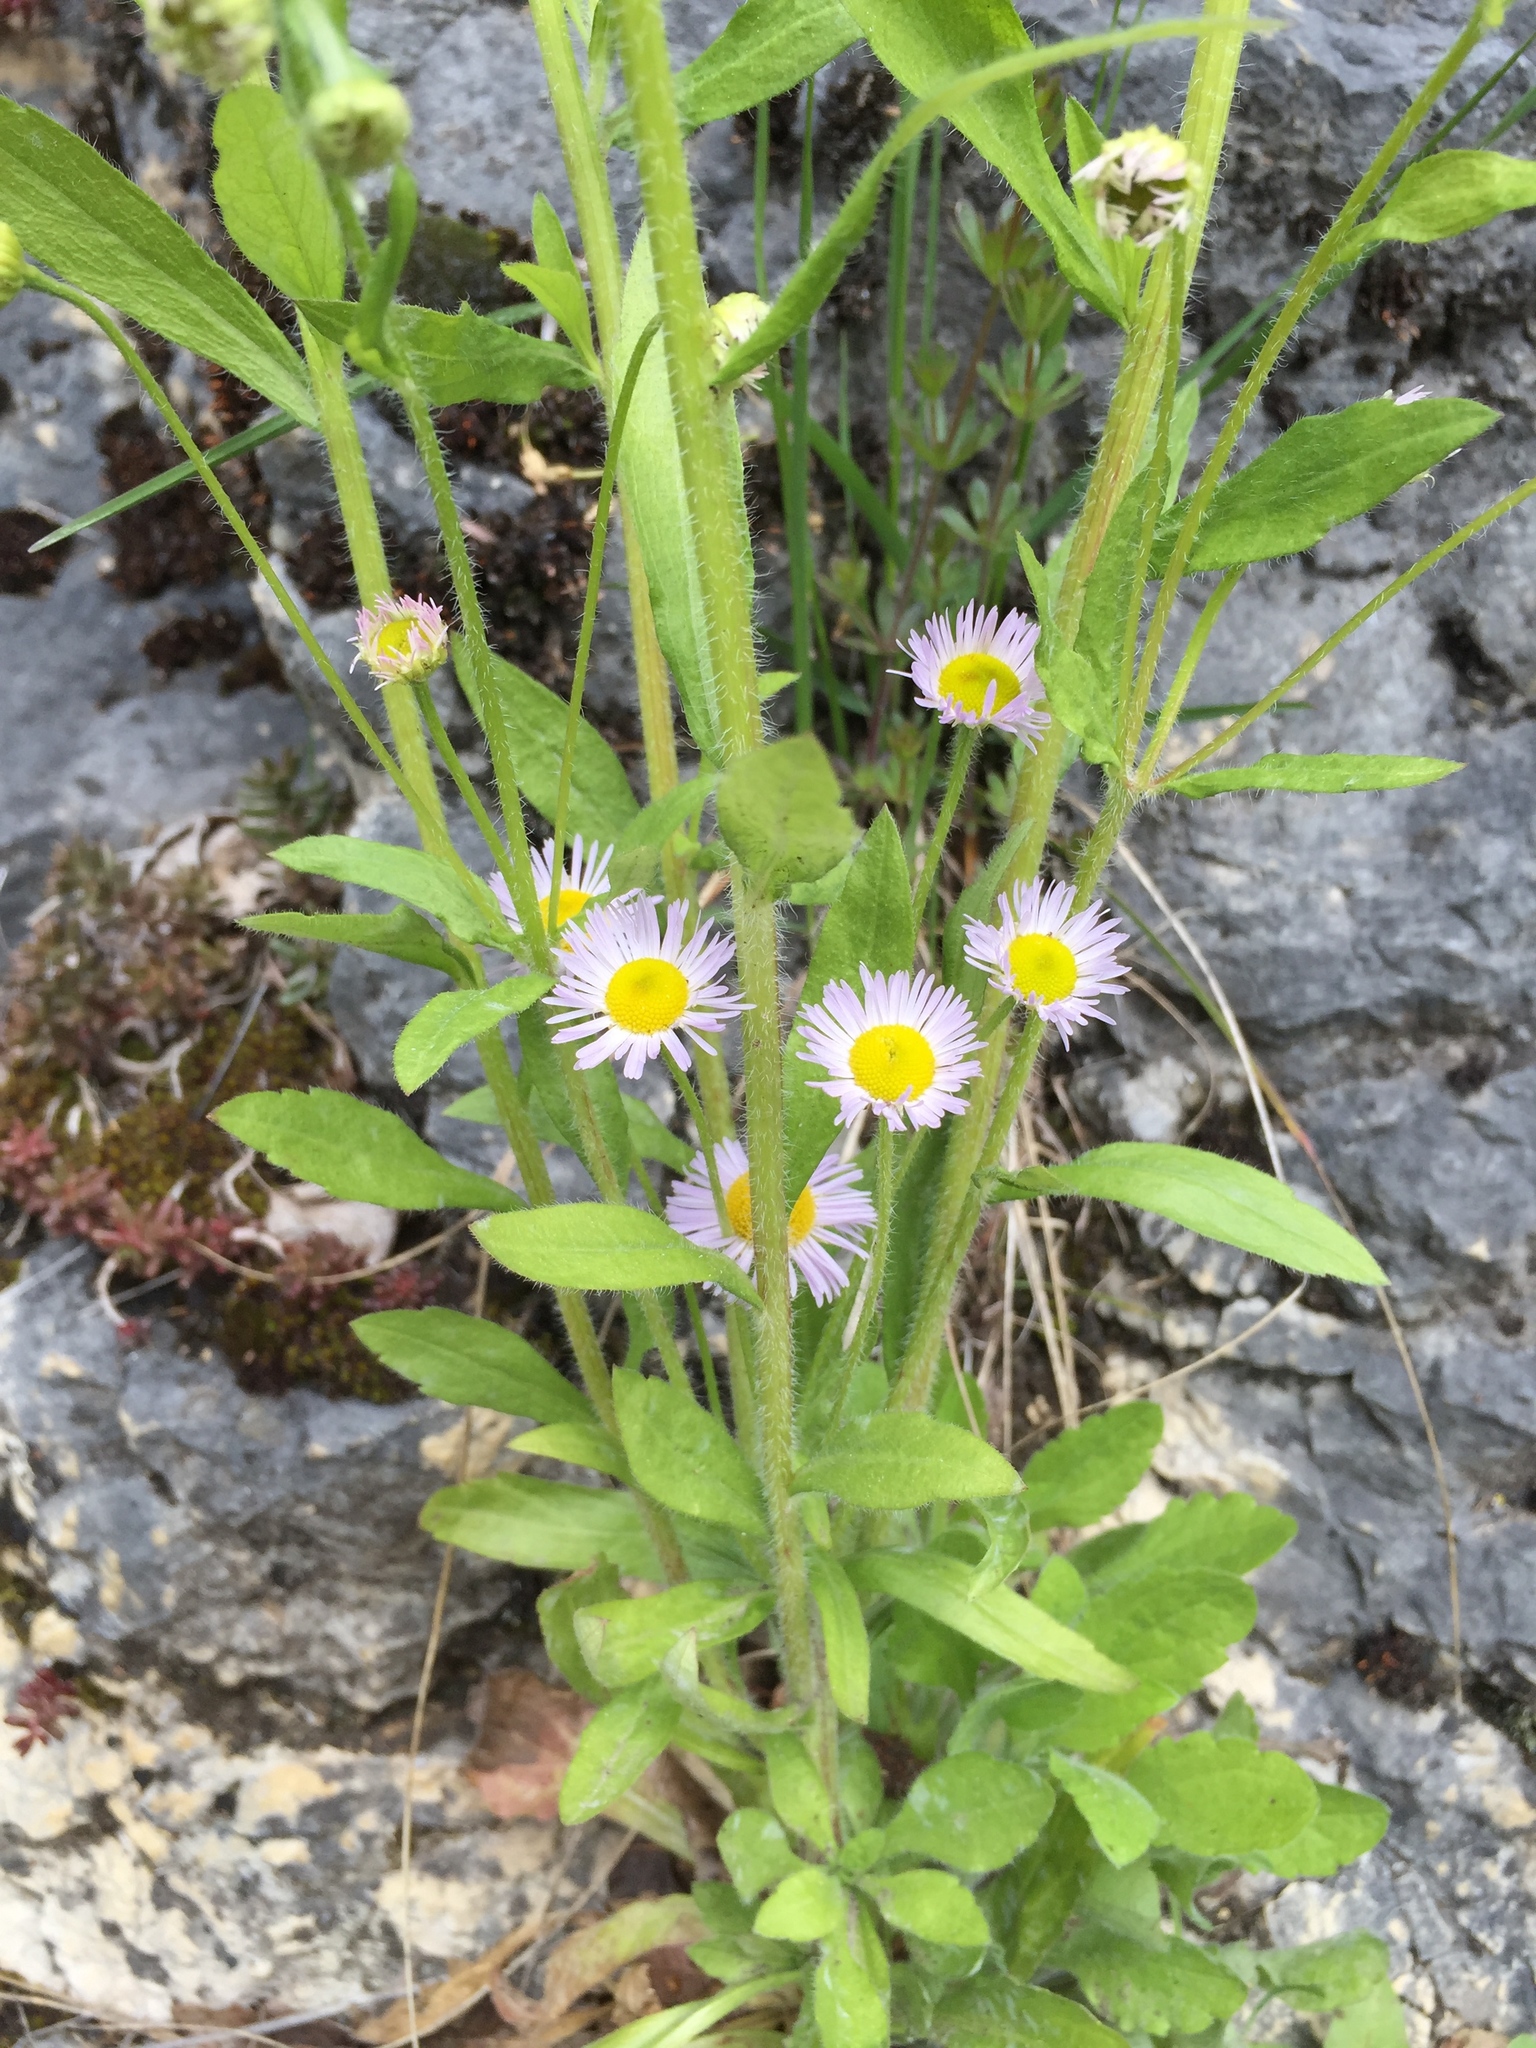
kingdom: Plantae
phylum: Tracheophyta
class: Magnoliopsida
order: Asterales
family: Asteraceae
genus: Erigeron
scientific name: Erigeron annuus
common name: Tall fleabane
